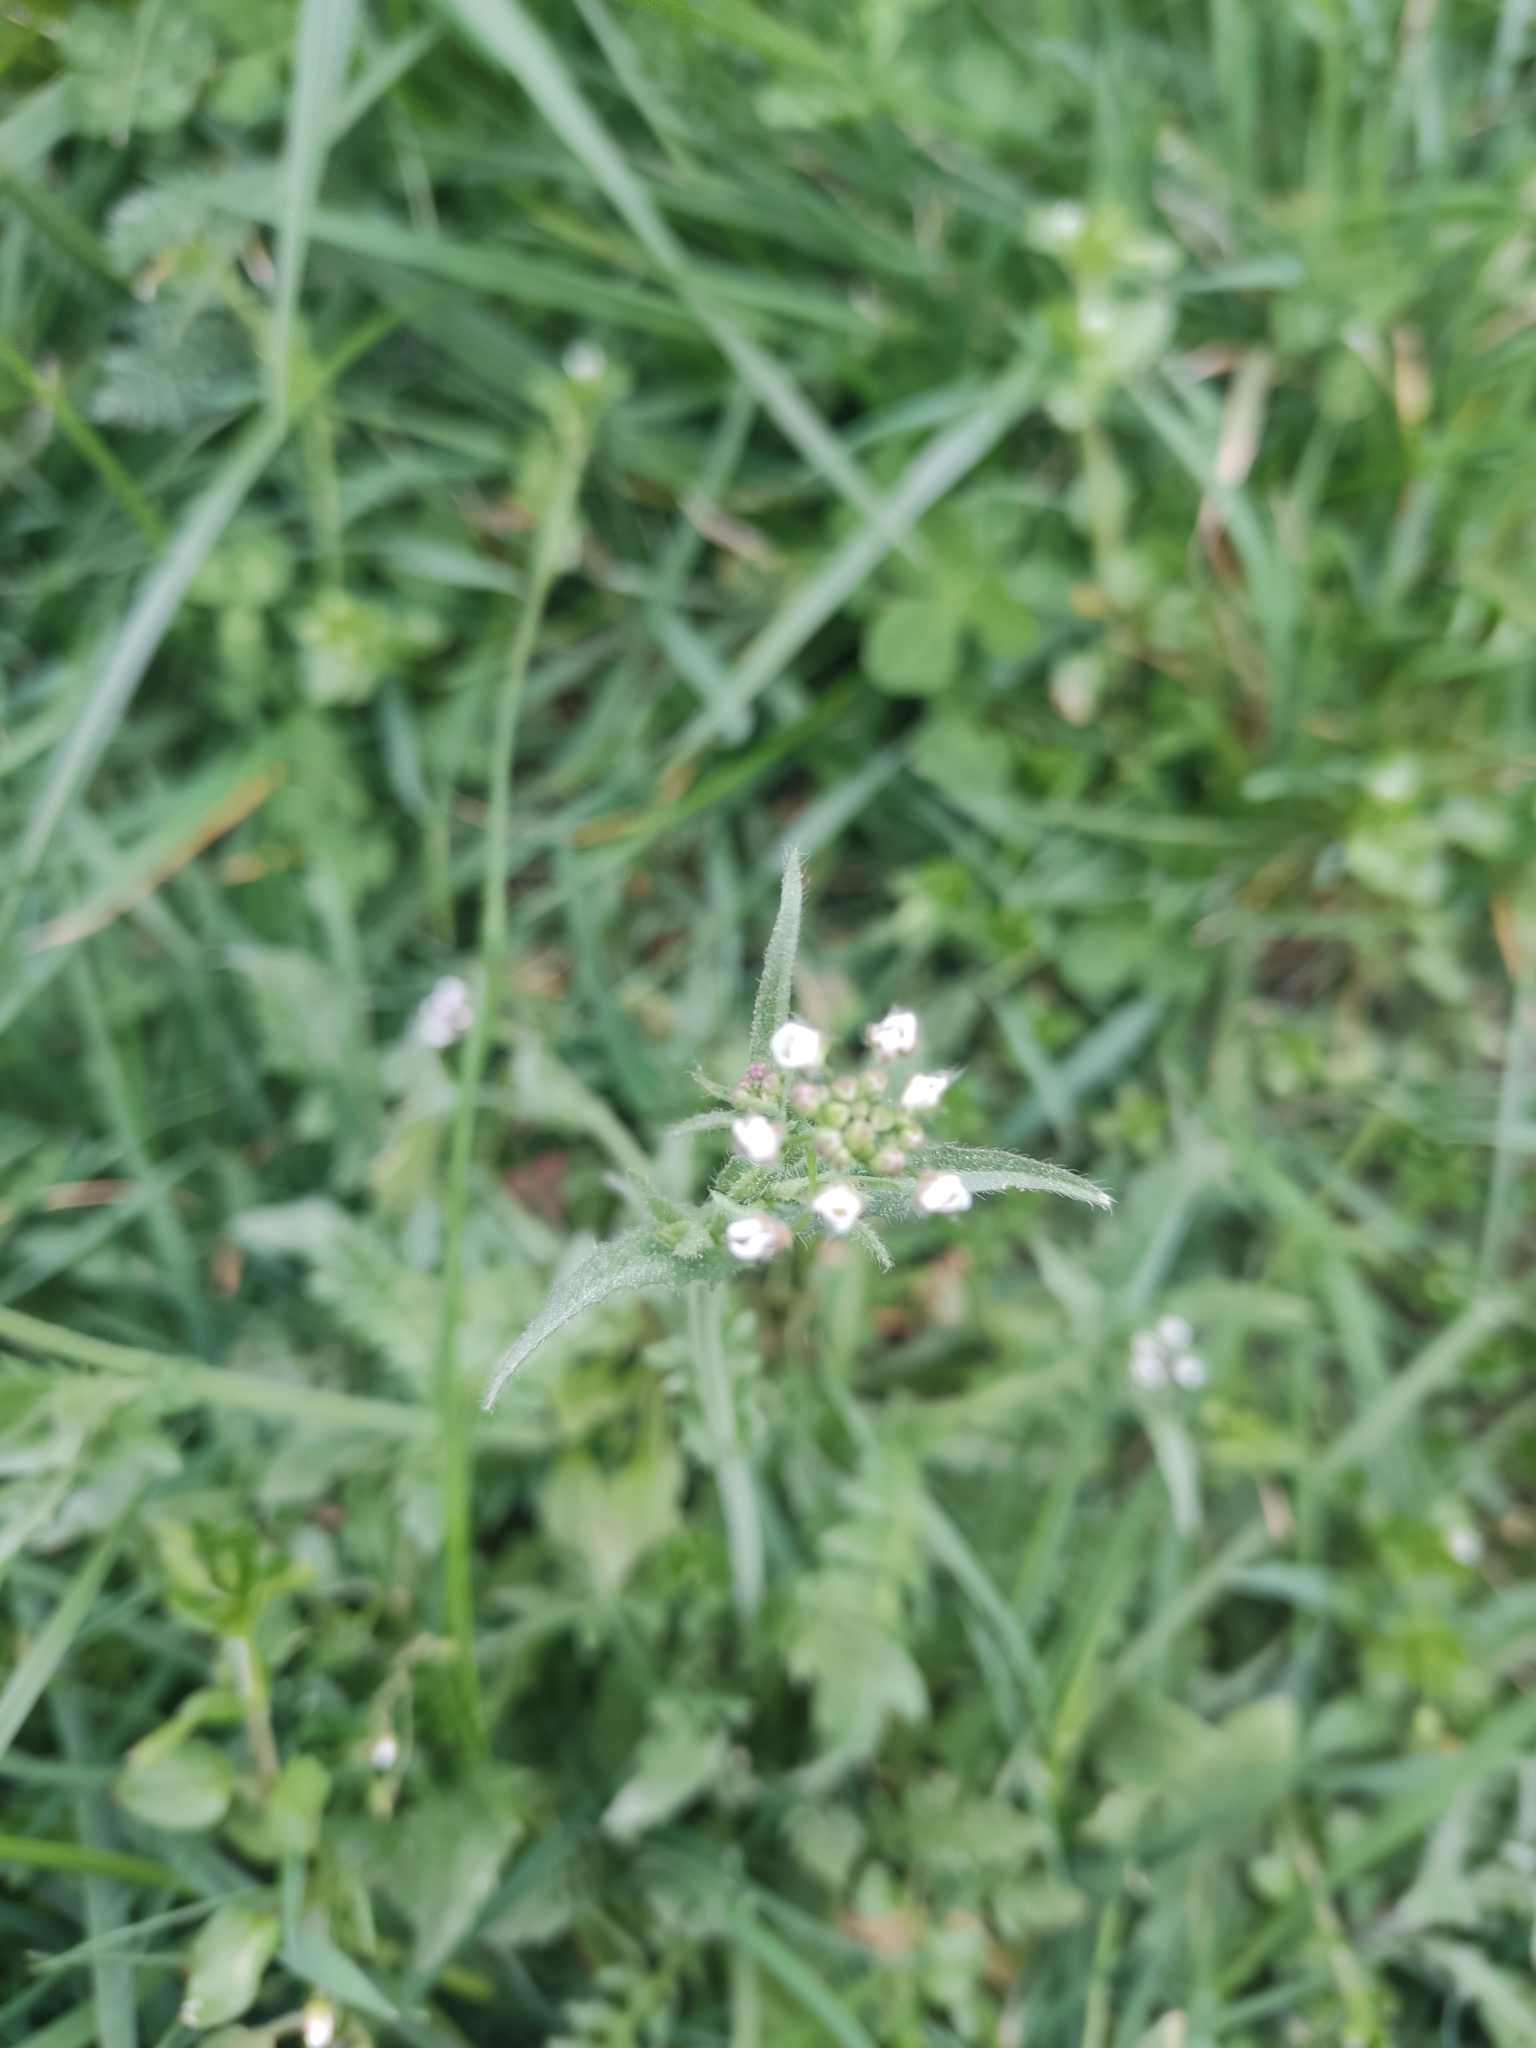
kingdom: Plantae
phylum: Tracheophyta
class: Magnoliopsida
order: Brassicales
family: Brassicaceae
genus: Capsella
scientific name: Capsella bursa-pastoris
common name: Shepherd's purse
